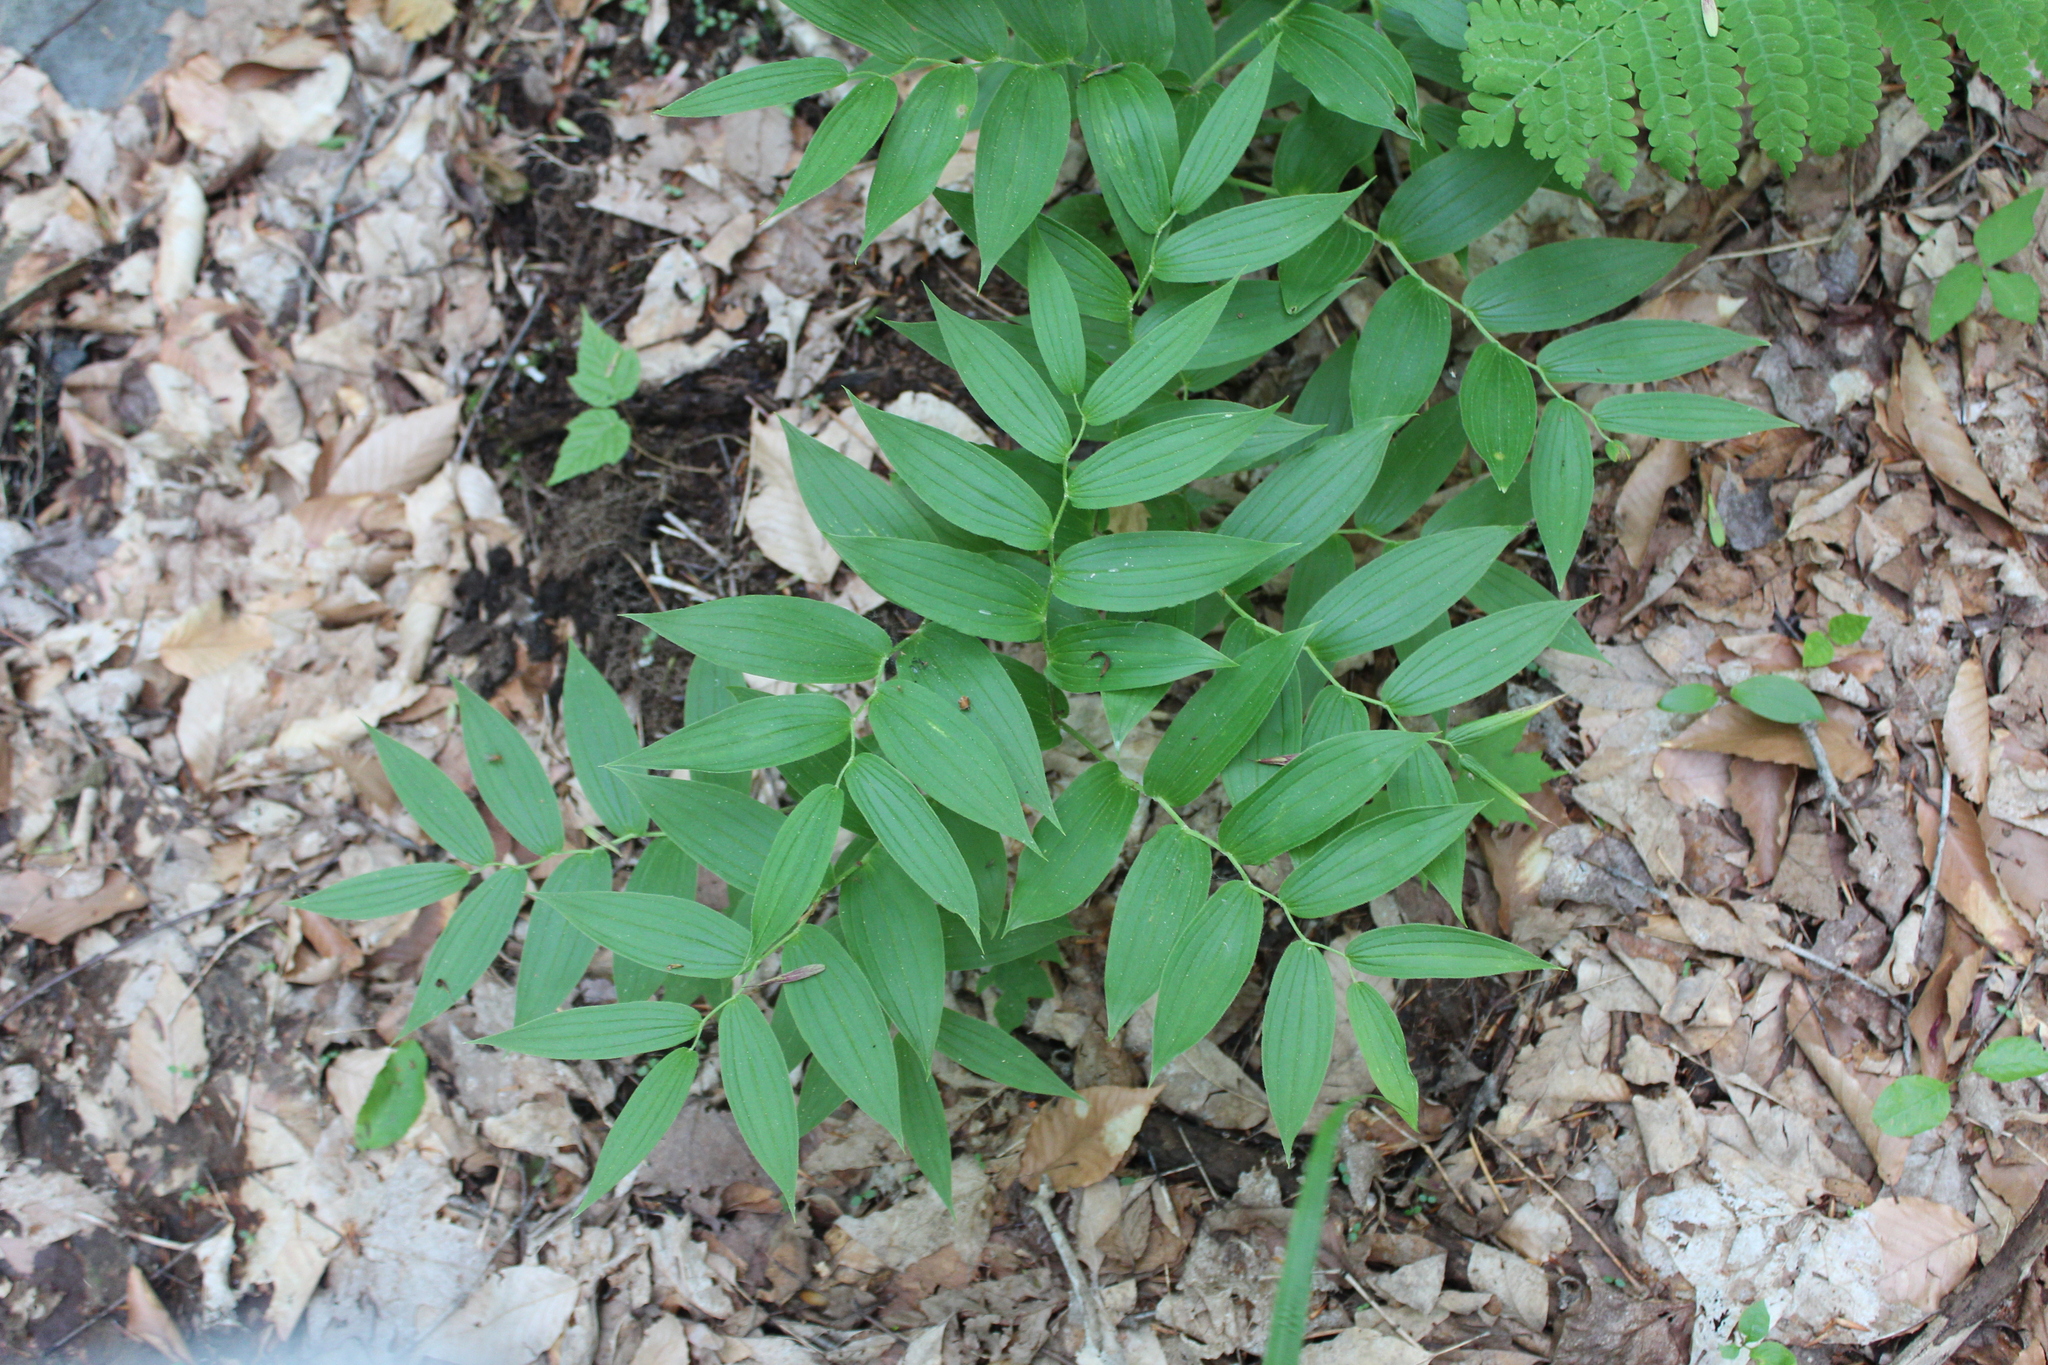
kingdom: Plantae
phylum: Tracheophyta
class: Liliopsida
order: Liliales
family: Liliaceae
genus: Streptopus
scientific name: Streptopus lanceolatus
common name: Rose mandarin
